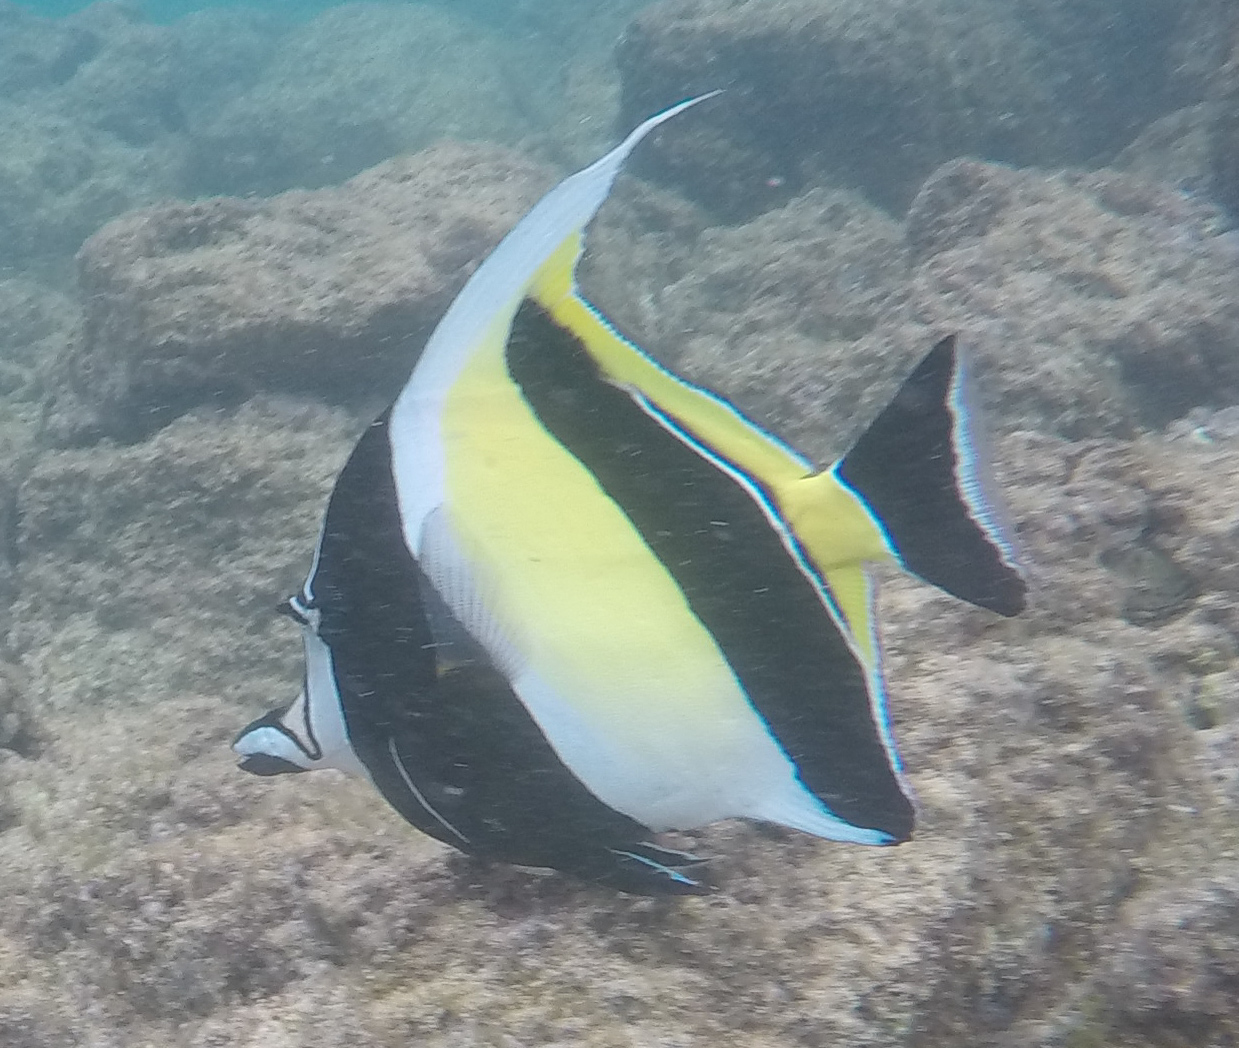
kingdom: Animalia
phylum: Chordata
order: Perciformes
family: Zanclidae
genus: Zanclus
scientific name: Zanclus cornutus
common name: Moorish idol
